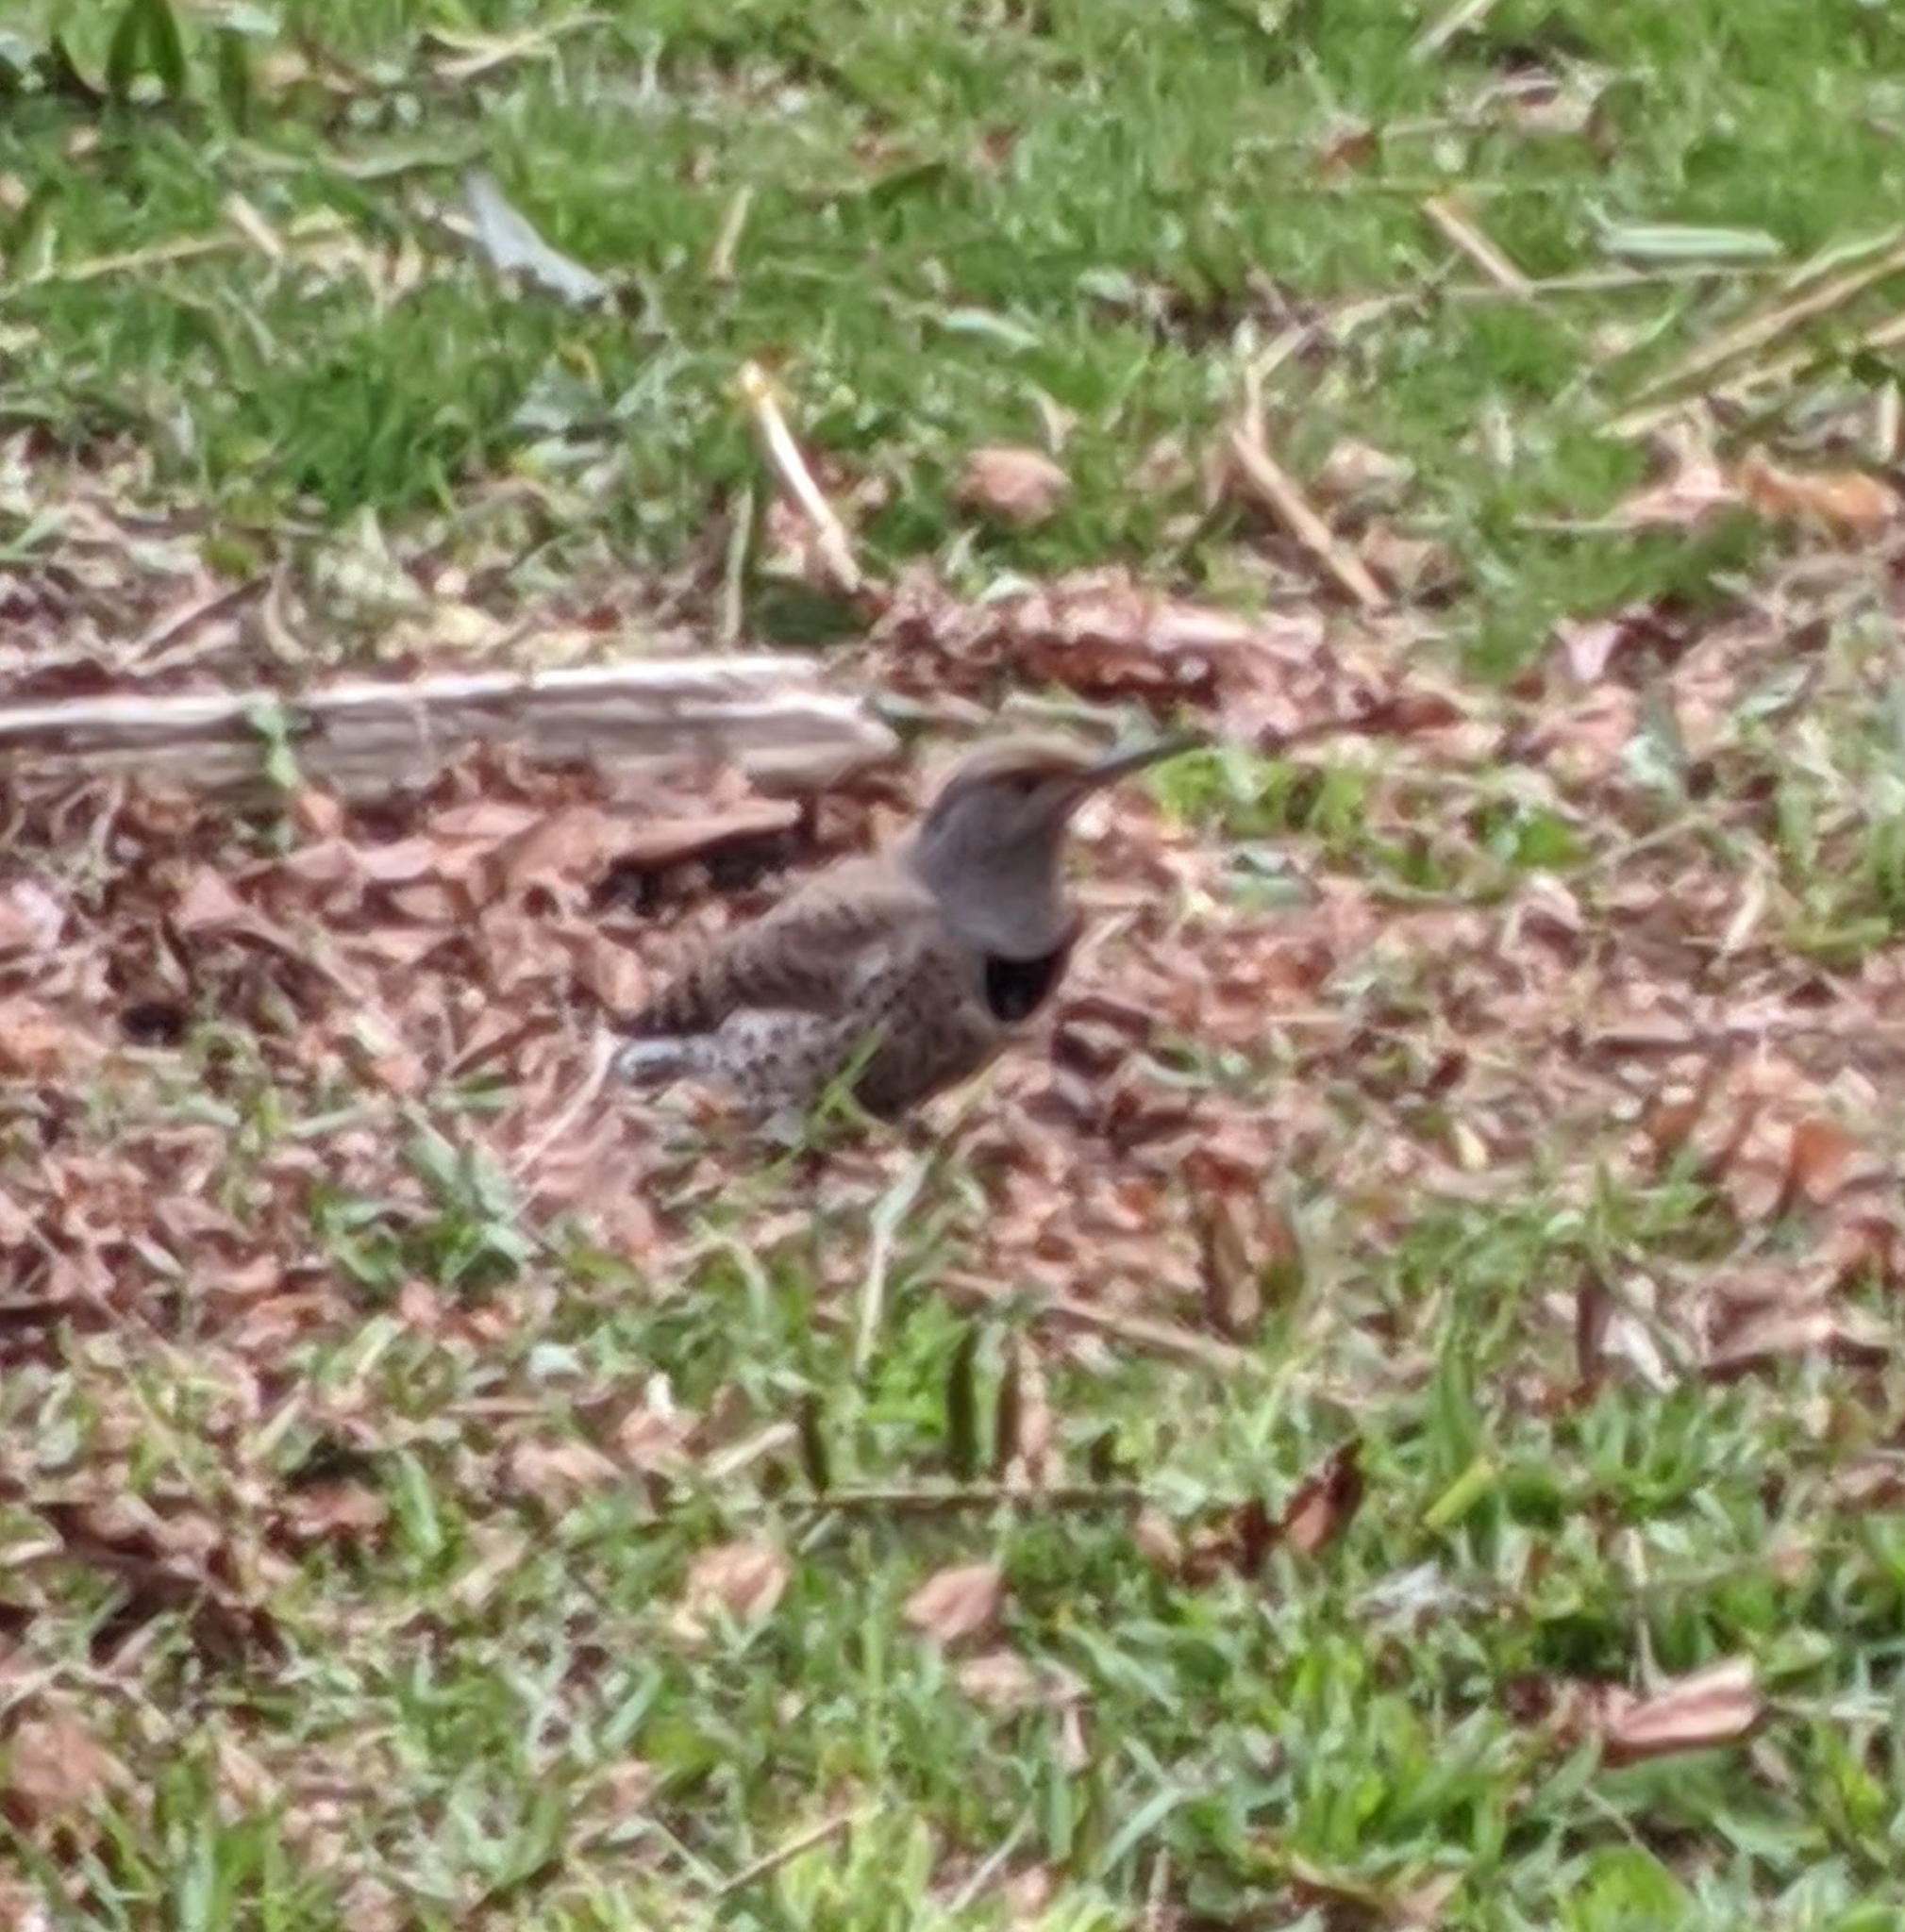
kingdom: Animalia
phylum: Chordata
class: Aves
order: Piciformes
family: Picidae
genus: Colaptes
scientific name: Colaptes auratus
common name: Northern flicker
